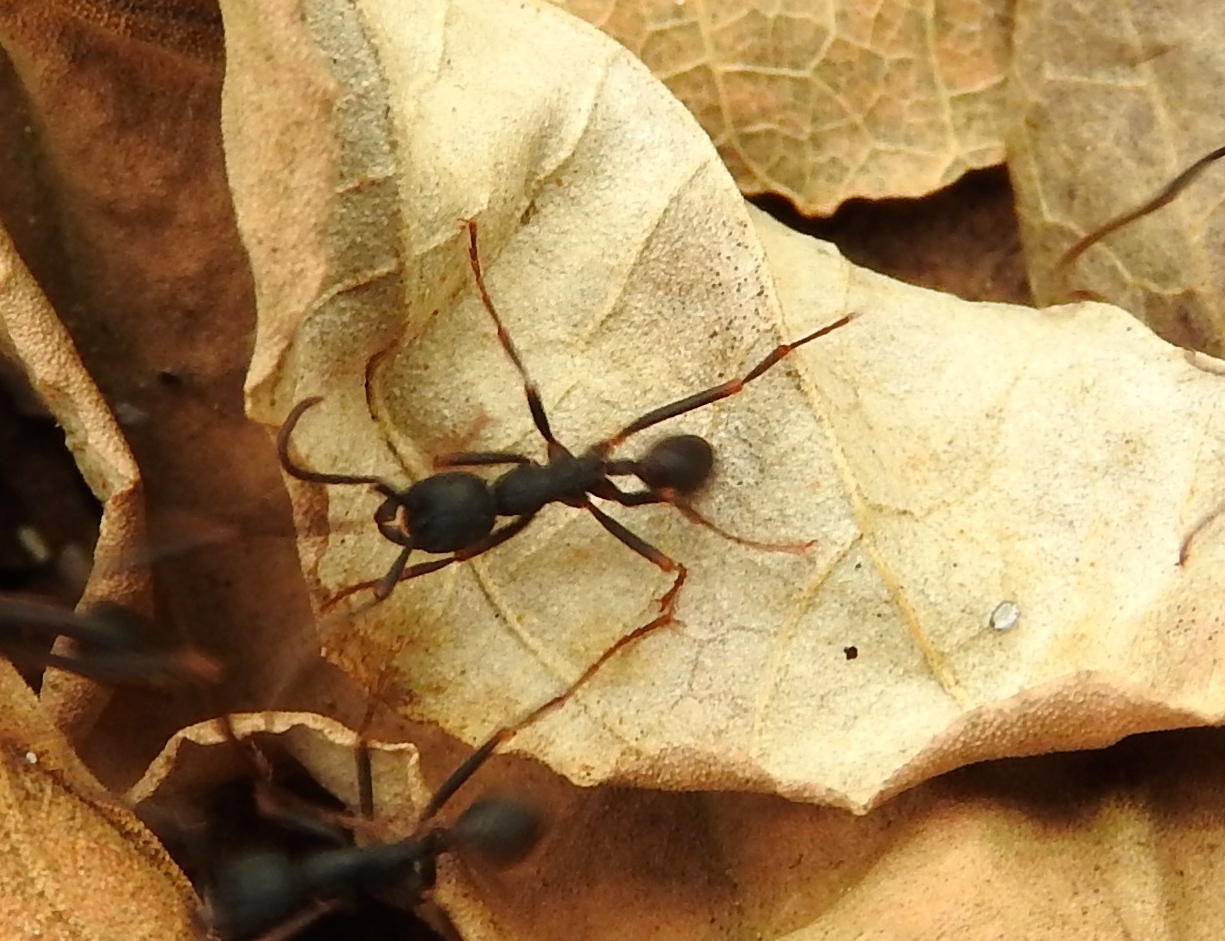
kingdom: Animalia
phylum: Arthropoda
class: Insecta
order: Hymenoptera
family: Formicidae
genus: Eciton
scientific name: Eciton burchellii
